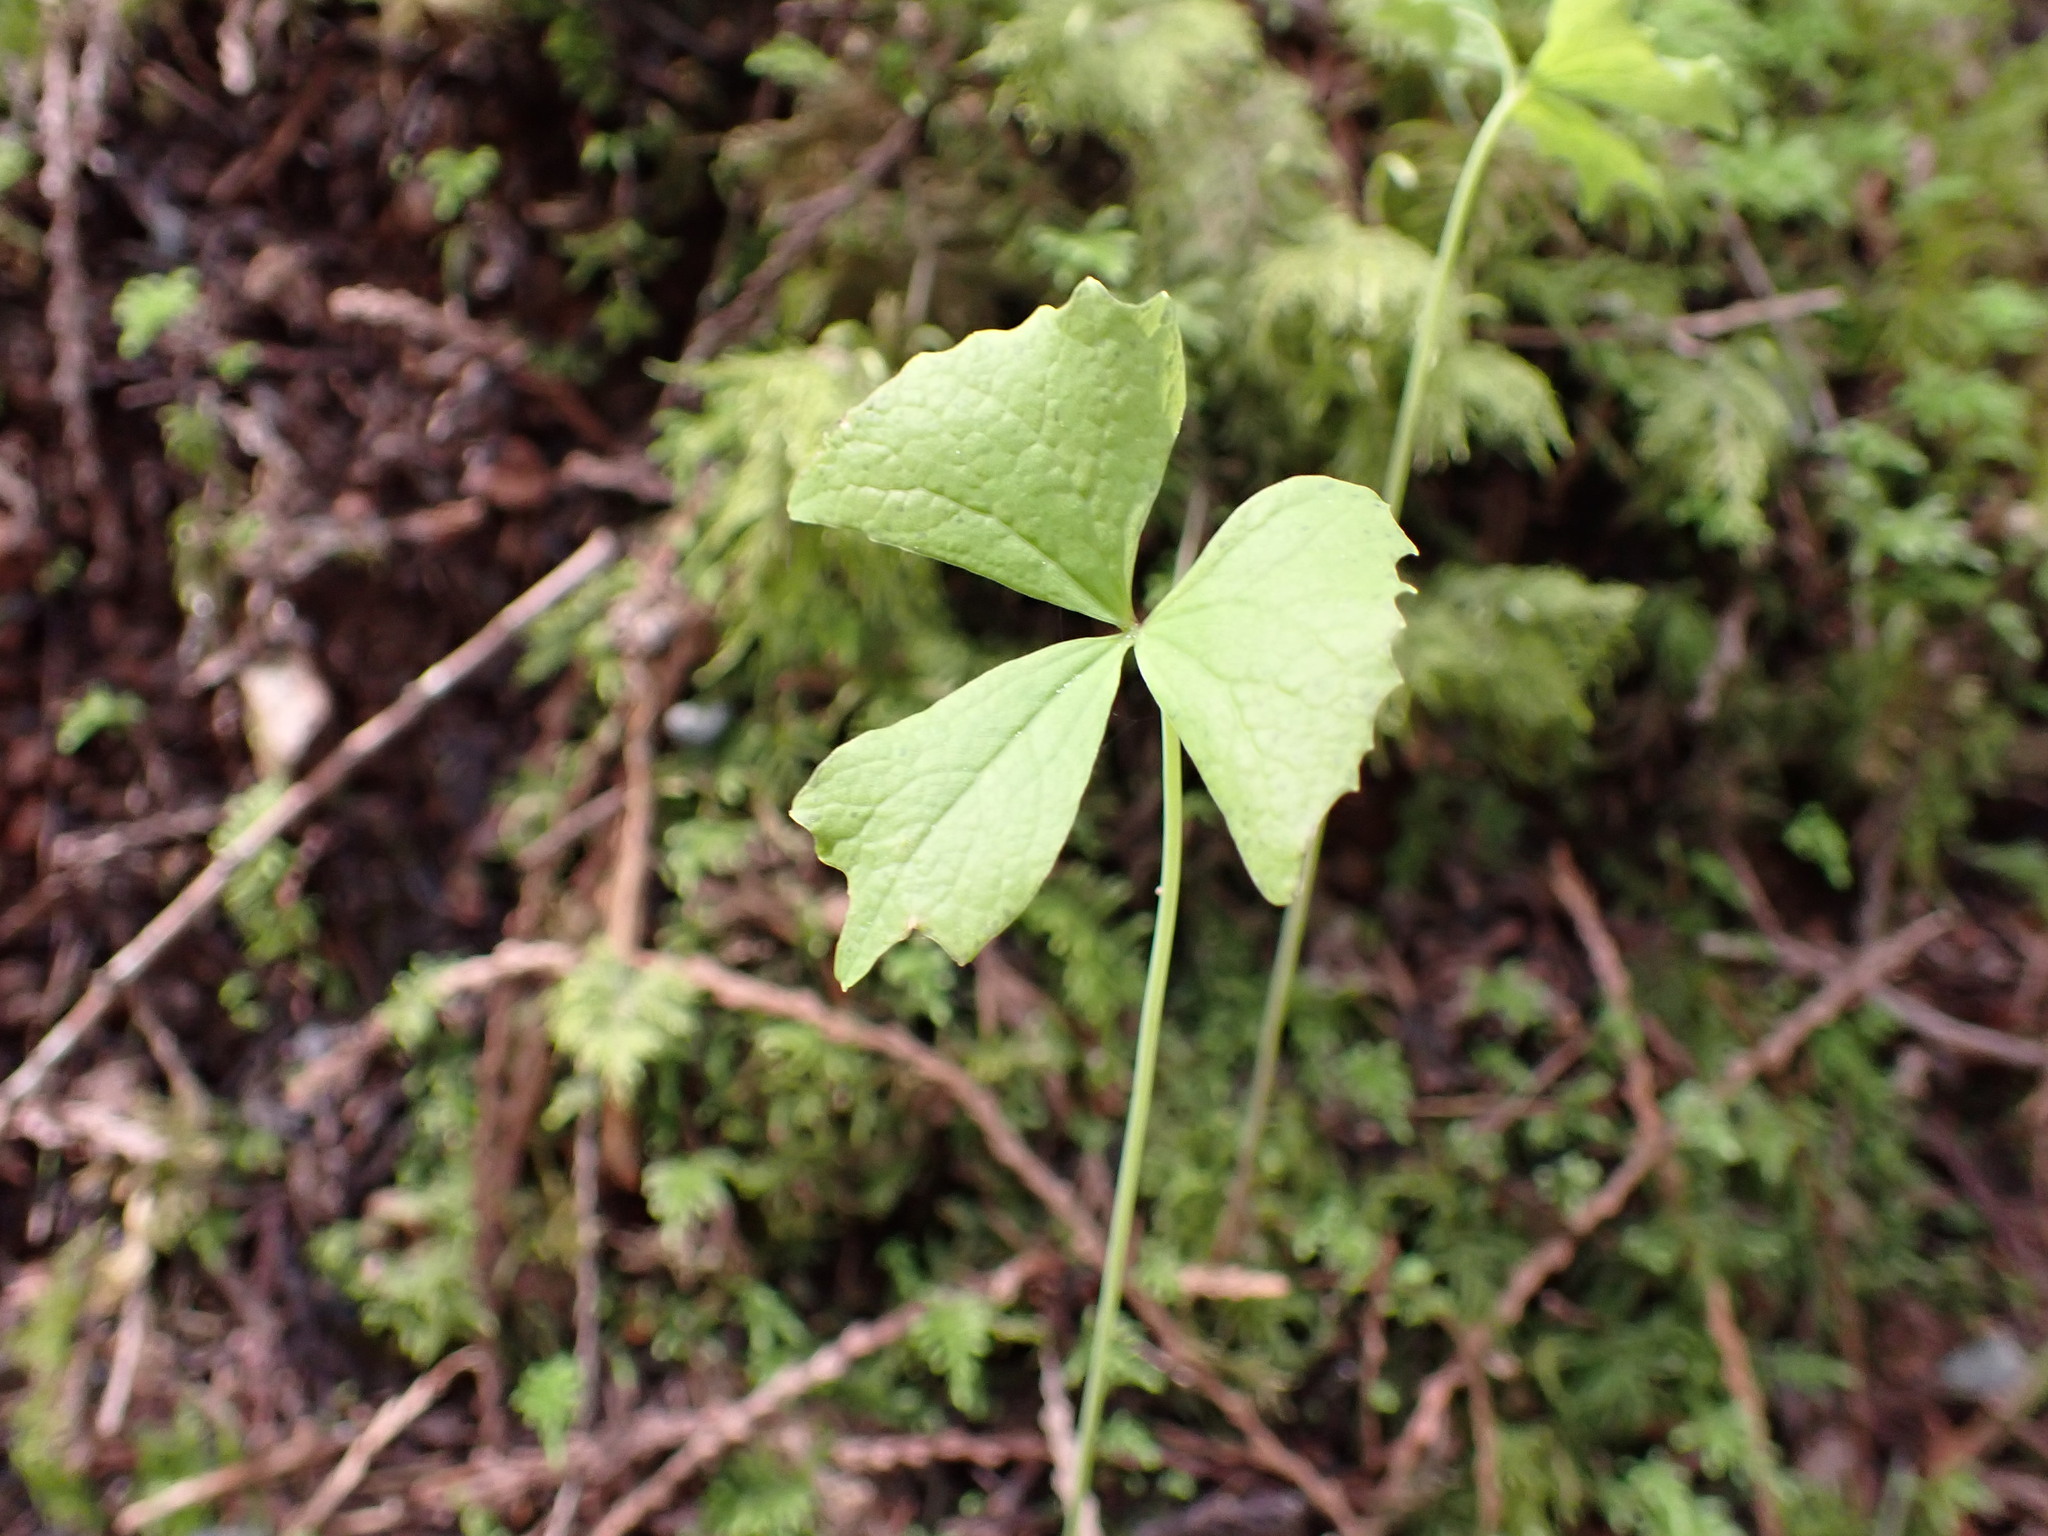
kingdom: Plantae
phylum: Tracheophyta
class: Magnoliopsida
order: Ranunculales
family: Berberidaceae
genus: Achlys
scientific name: Achlys triphylla
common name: Vanilla-leaf
